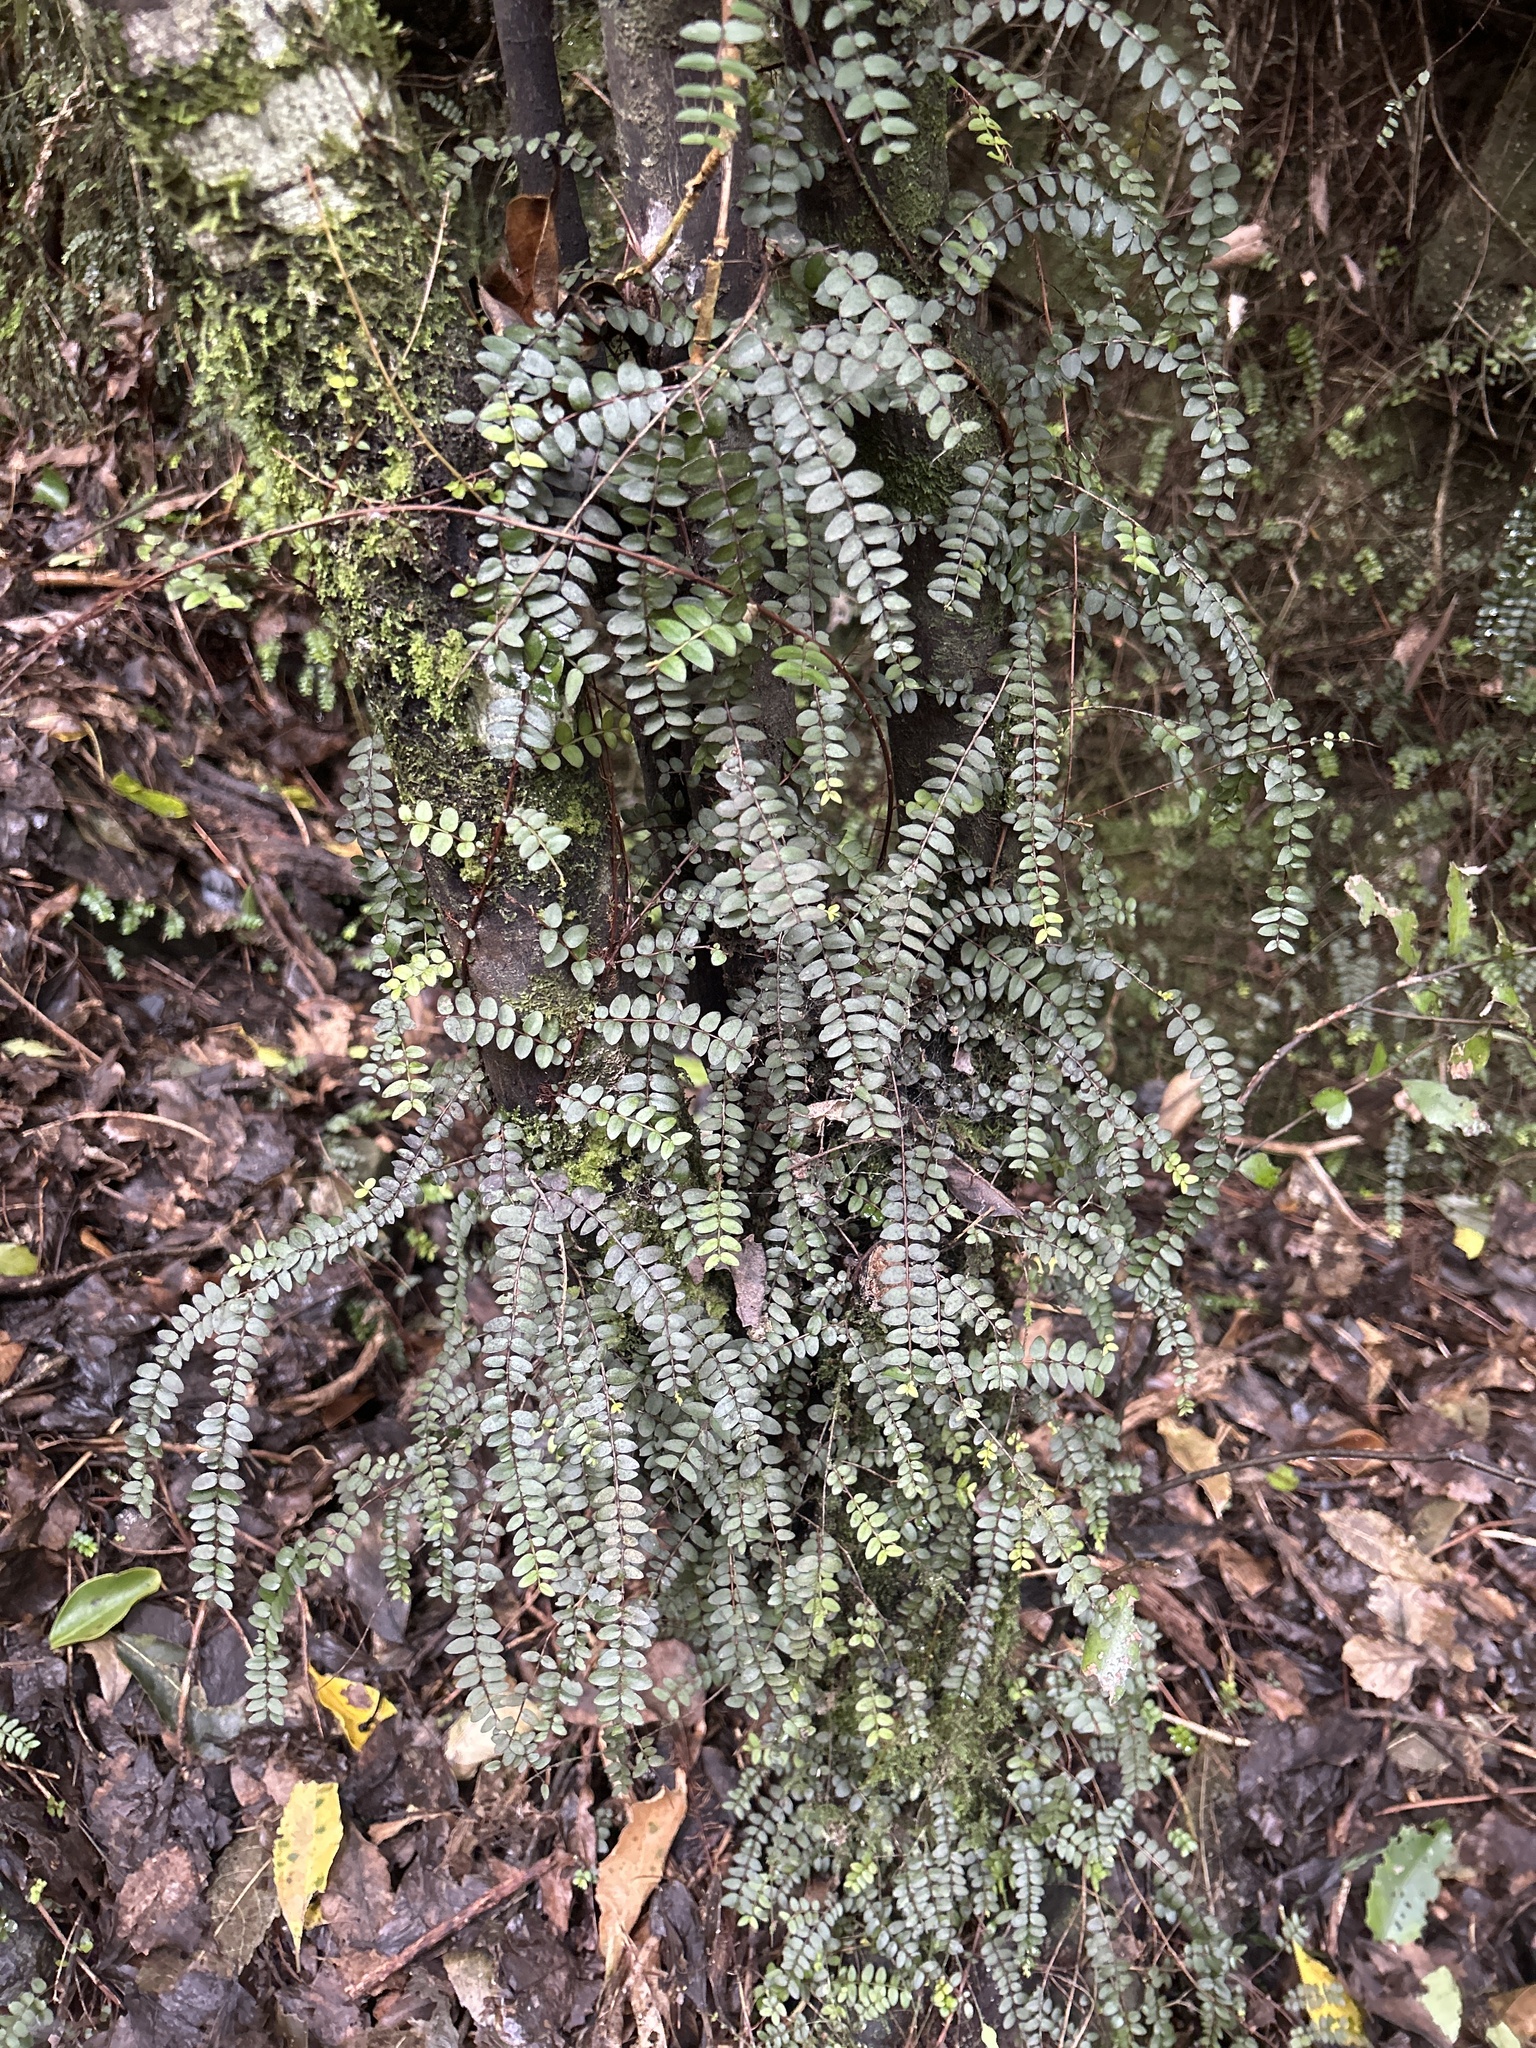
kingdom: Plantae
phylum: Tracheophyta
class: Magnoliopsida
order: Myrtales
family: Myrtaceae
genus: Metrosideros
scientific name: Metrosideros diffusa
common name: Small ratavine
